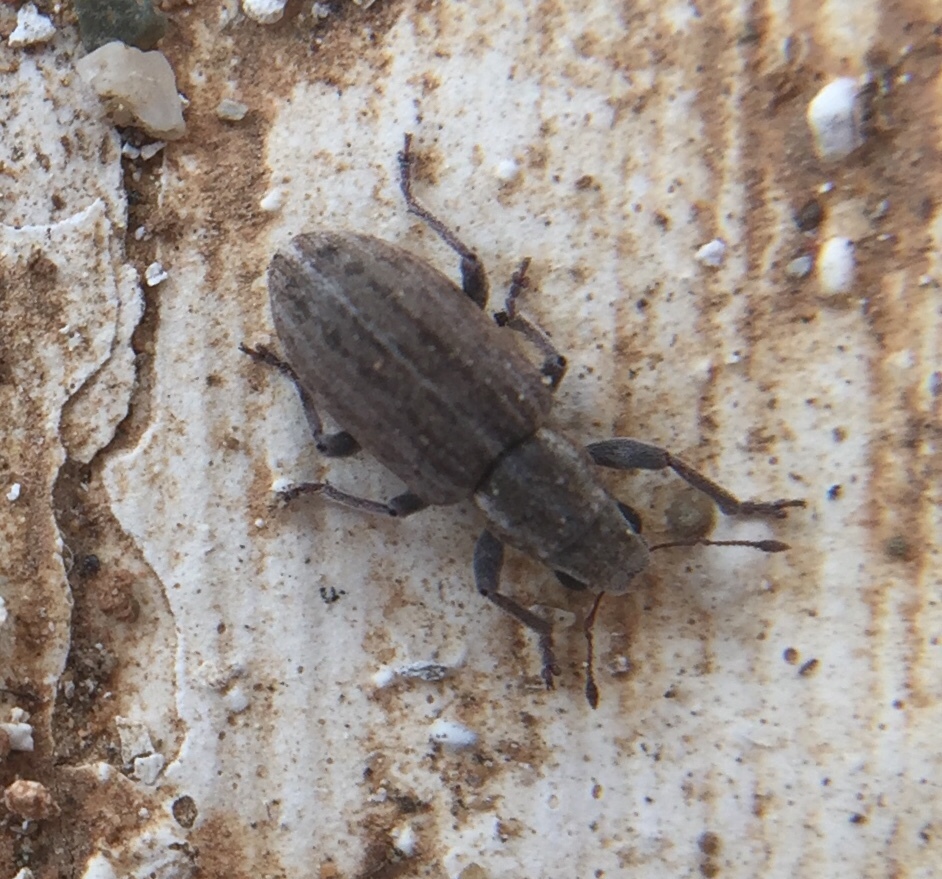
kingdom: Animalia
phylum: Arthropoda
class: Insecta
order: Coleoptera
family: Curculionidae
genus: Sitona
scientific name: Sitona puncticollis
